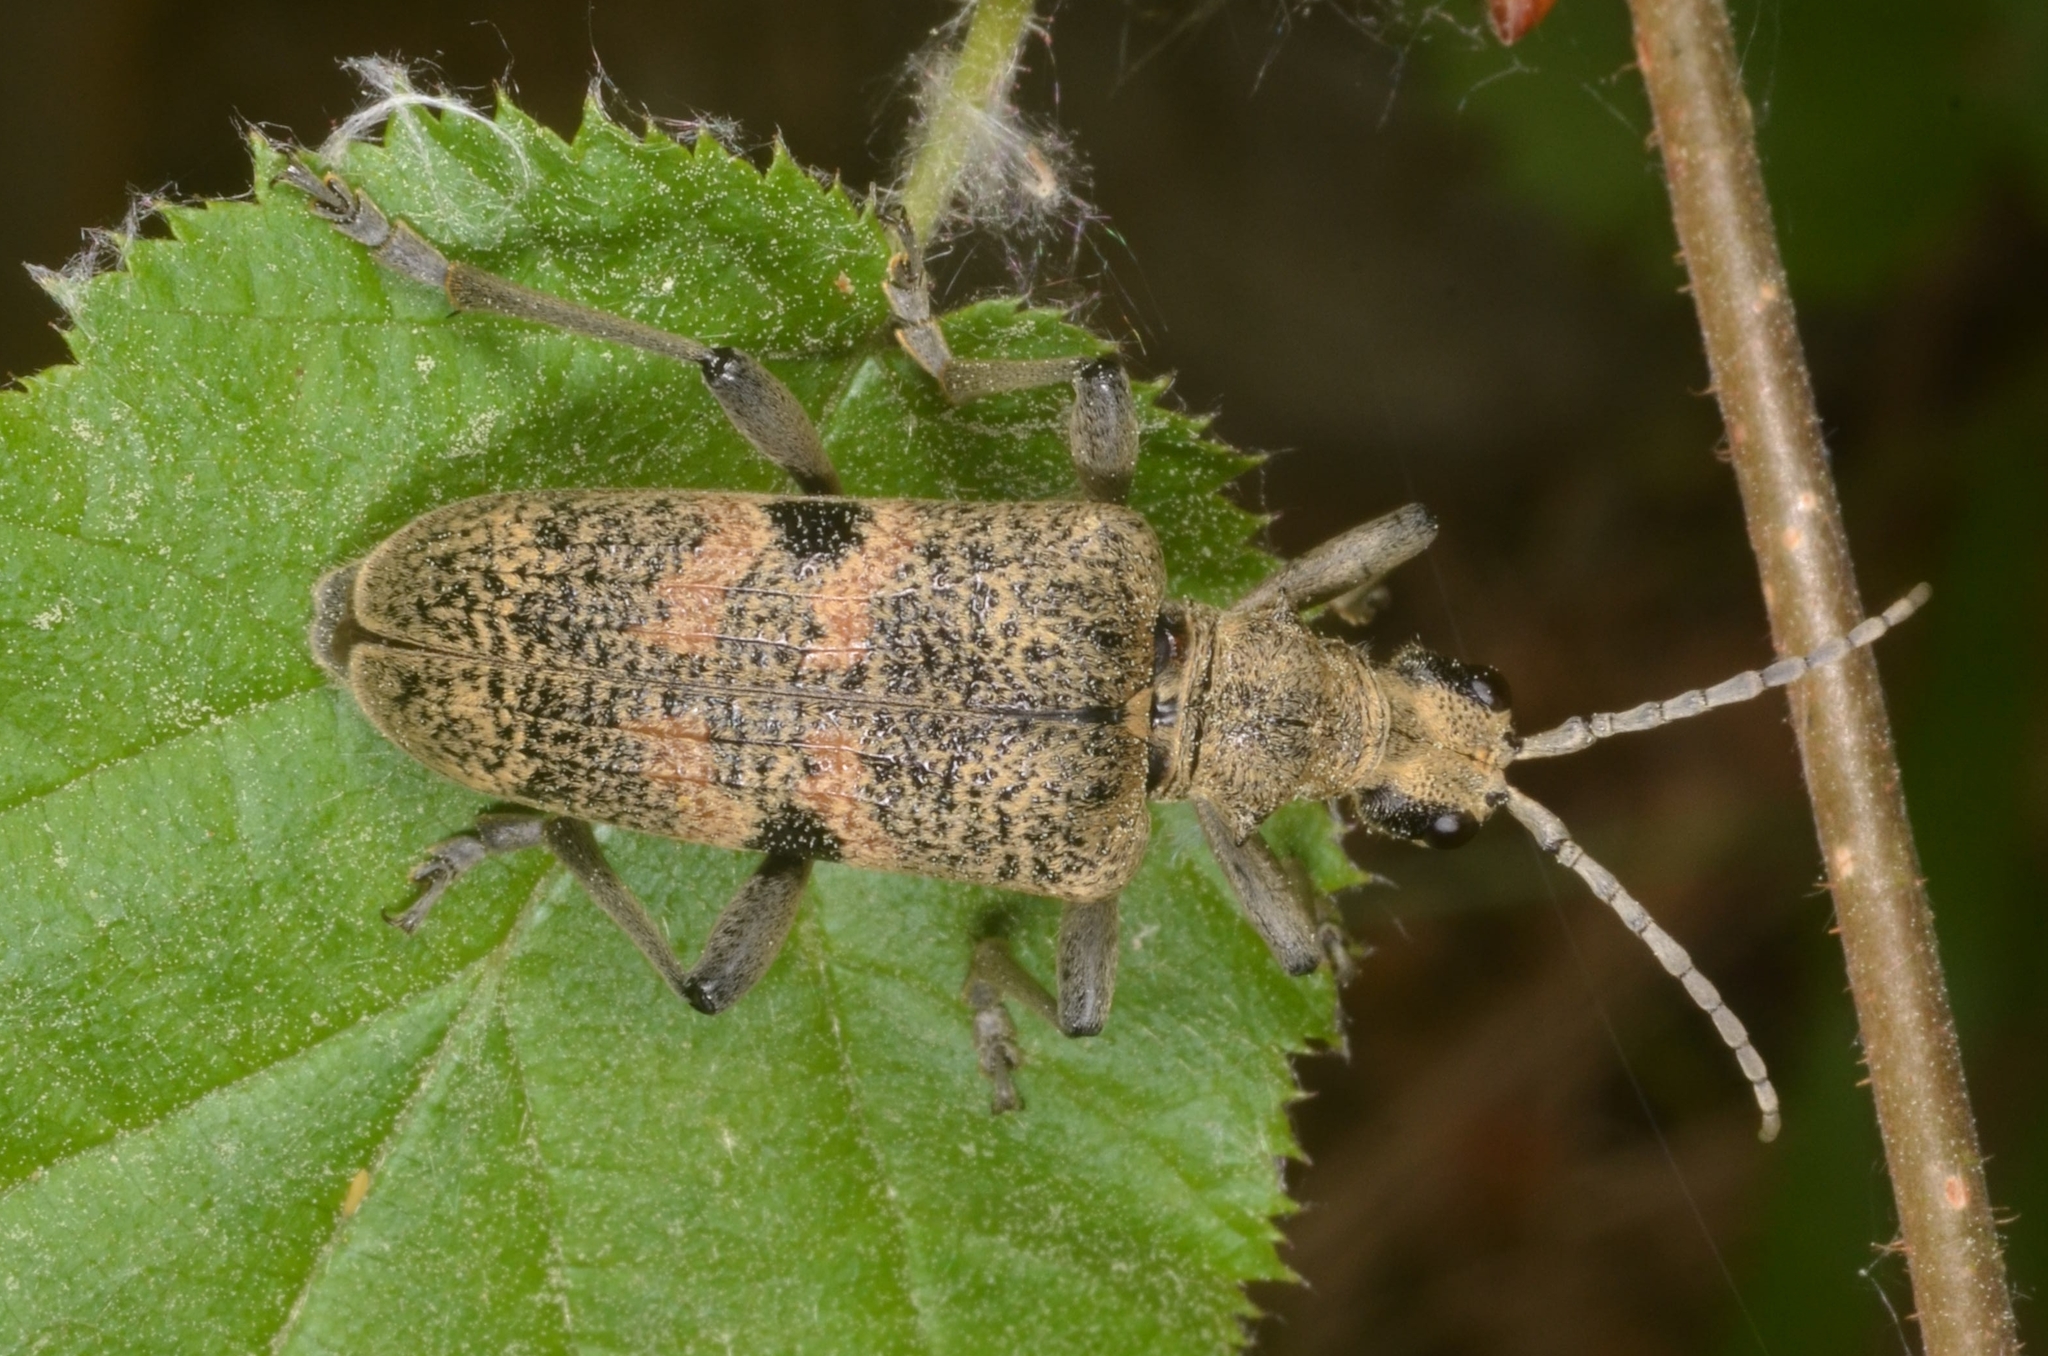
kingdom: Animalia
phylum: Arthropoda
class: Insecta
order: Coleoptera
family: Cerambycidae
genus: Rhagium
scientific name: Rhagium mordax
